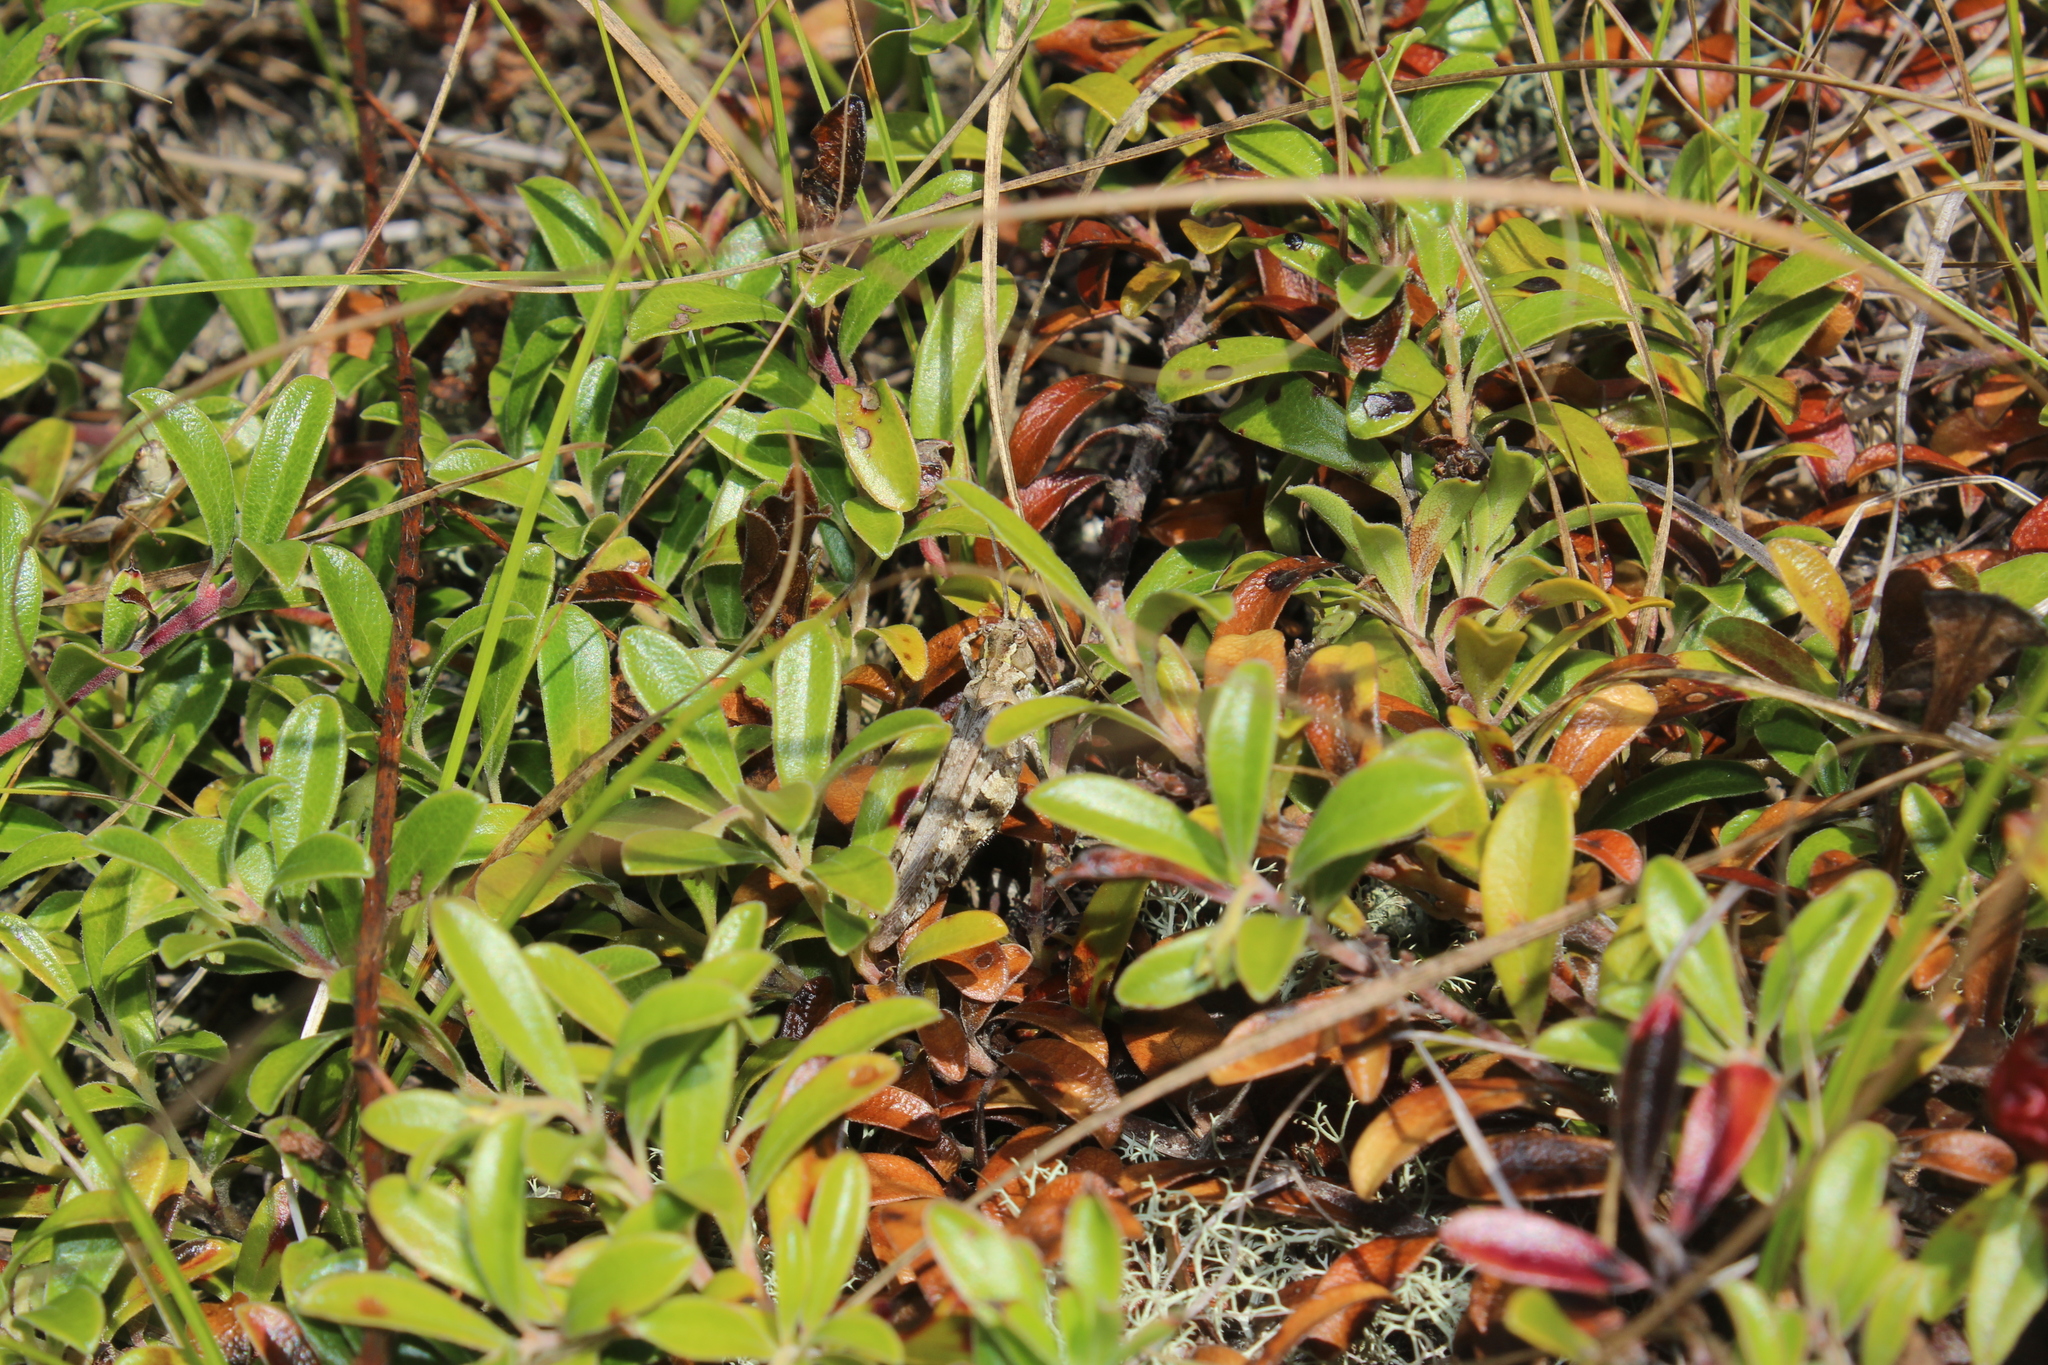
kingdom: Animalia
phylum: Arthropoda
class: Insecta
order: Orthoptera
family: Acrididae
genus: Psinidia
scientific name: Psinidia fenestralis
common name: Long-horned locust
